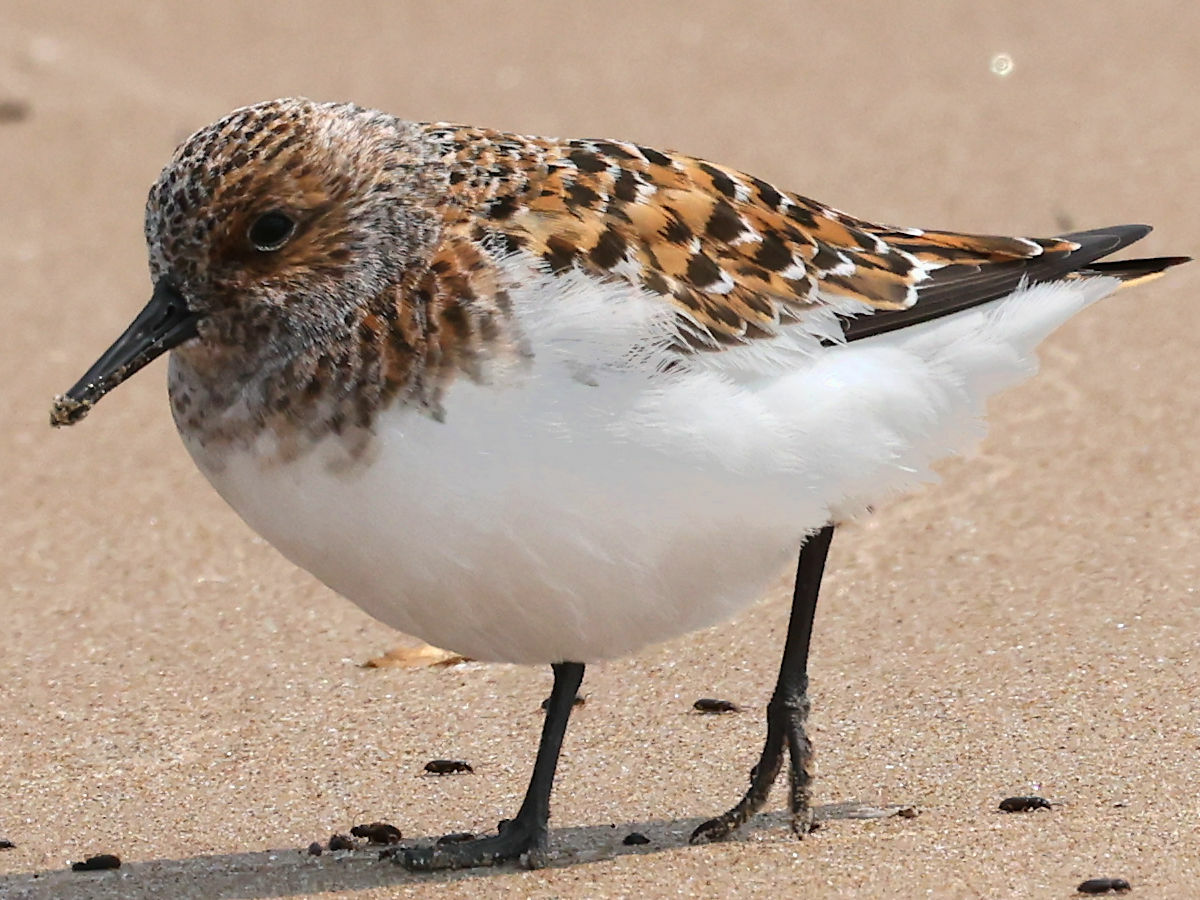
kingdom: Animalia
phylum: Chordata
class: Aves
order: Charadriiformes
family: Scolopacidae
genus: Calidris
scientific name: Calidris alba
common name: Sanderling
